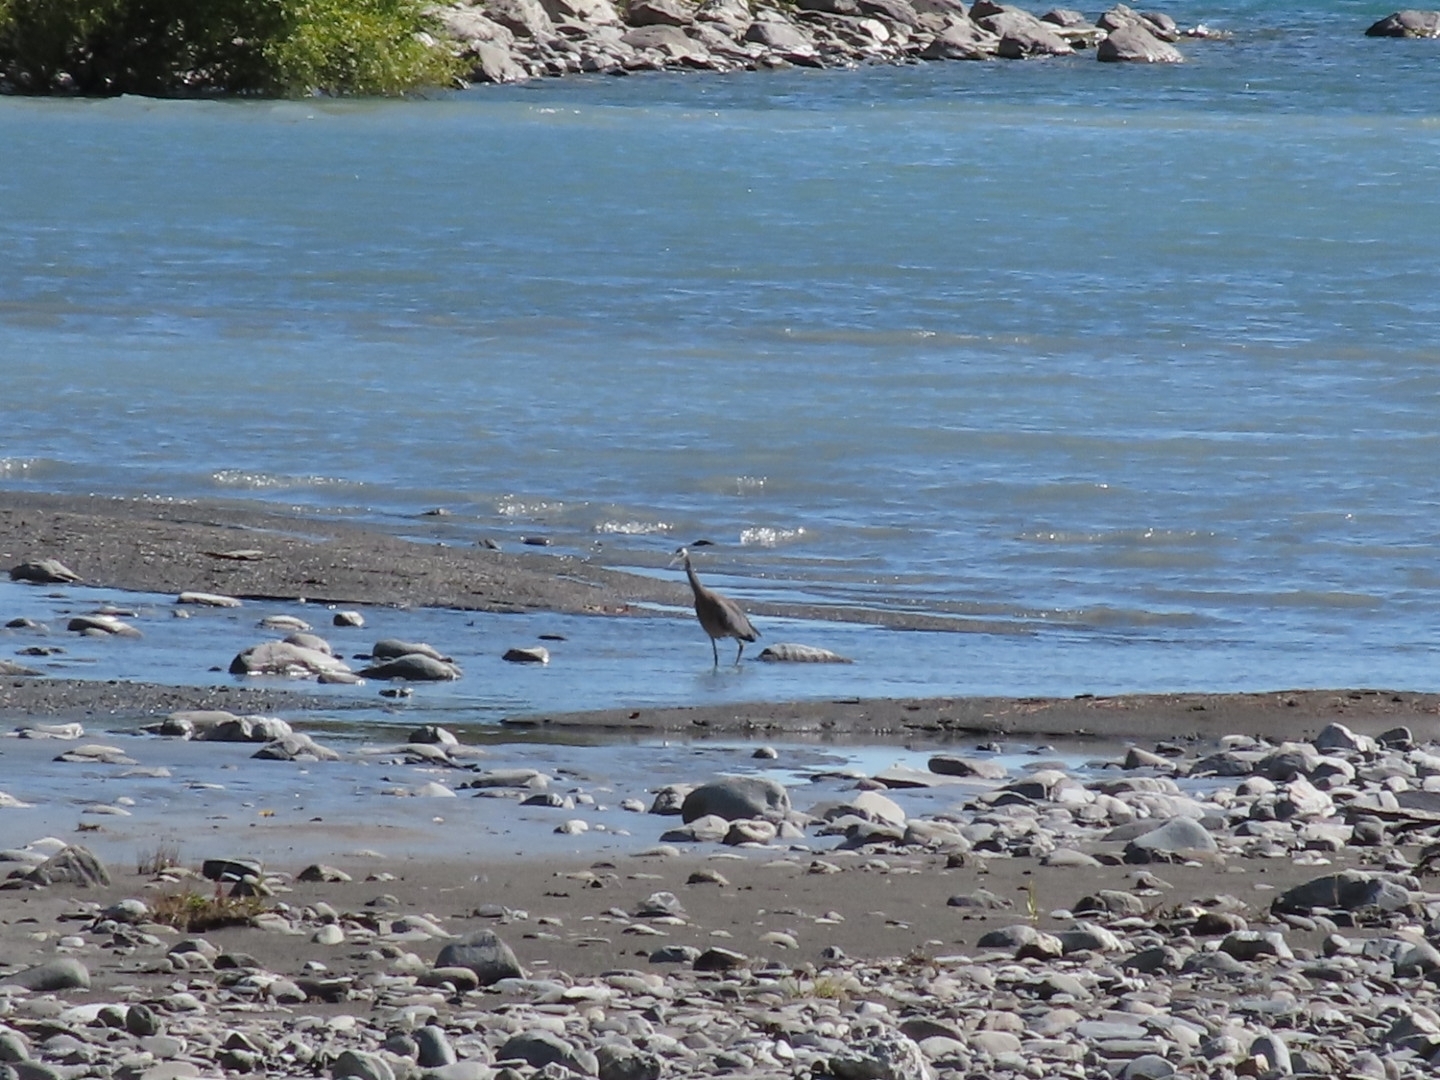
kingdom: Animalia
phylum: Chordata
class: Aves
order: Pelecaniformes
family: Ardeidae
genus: Egretta
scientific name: Egretta novaehollandiae
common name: White-faced heron
